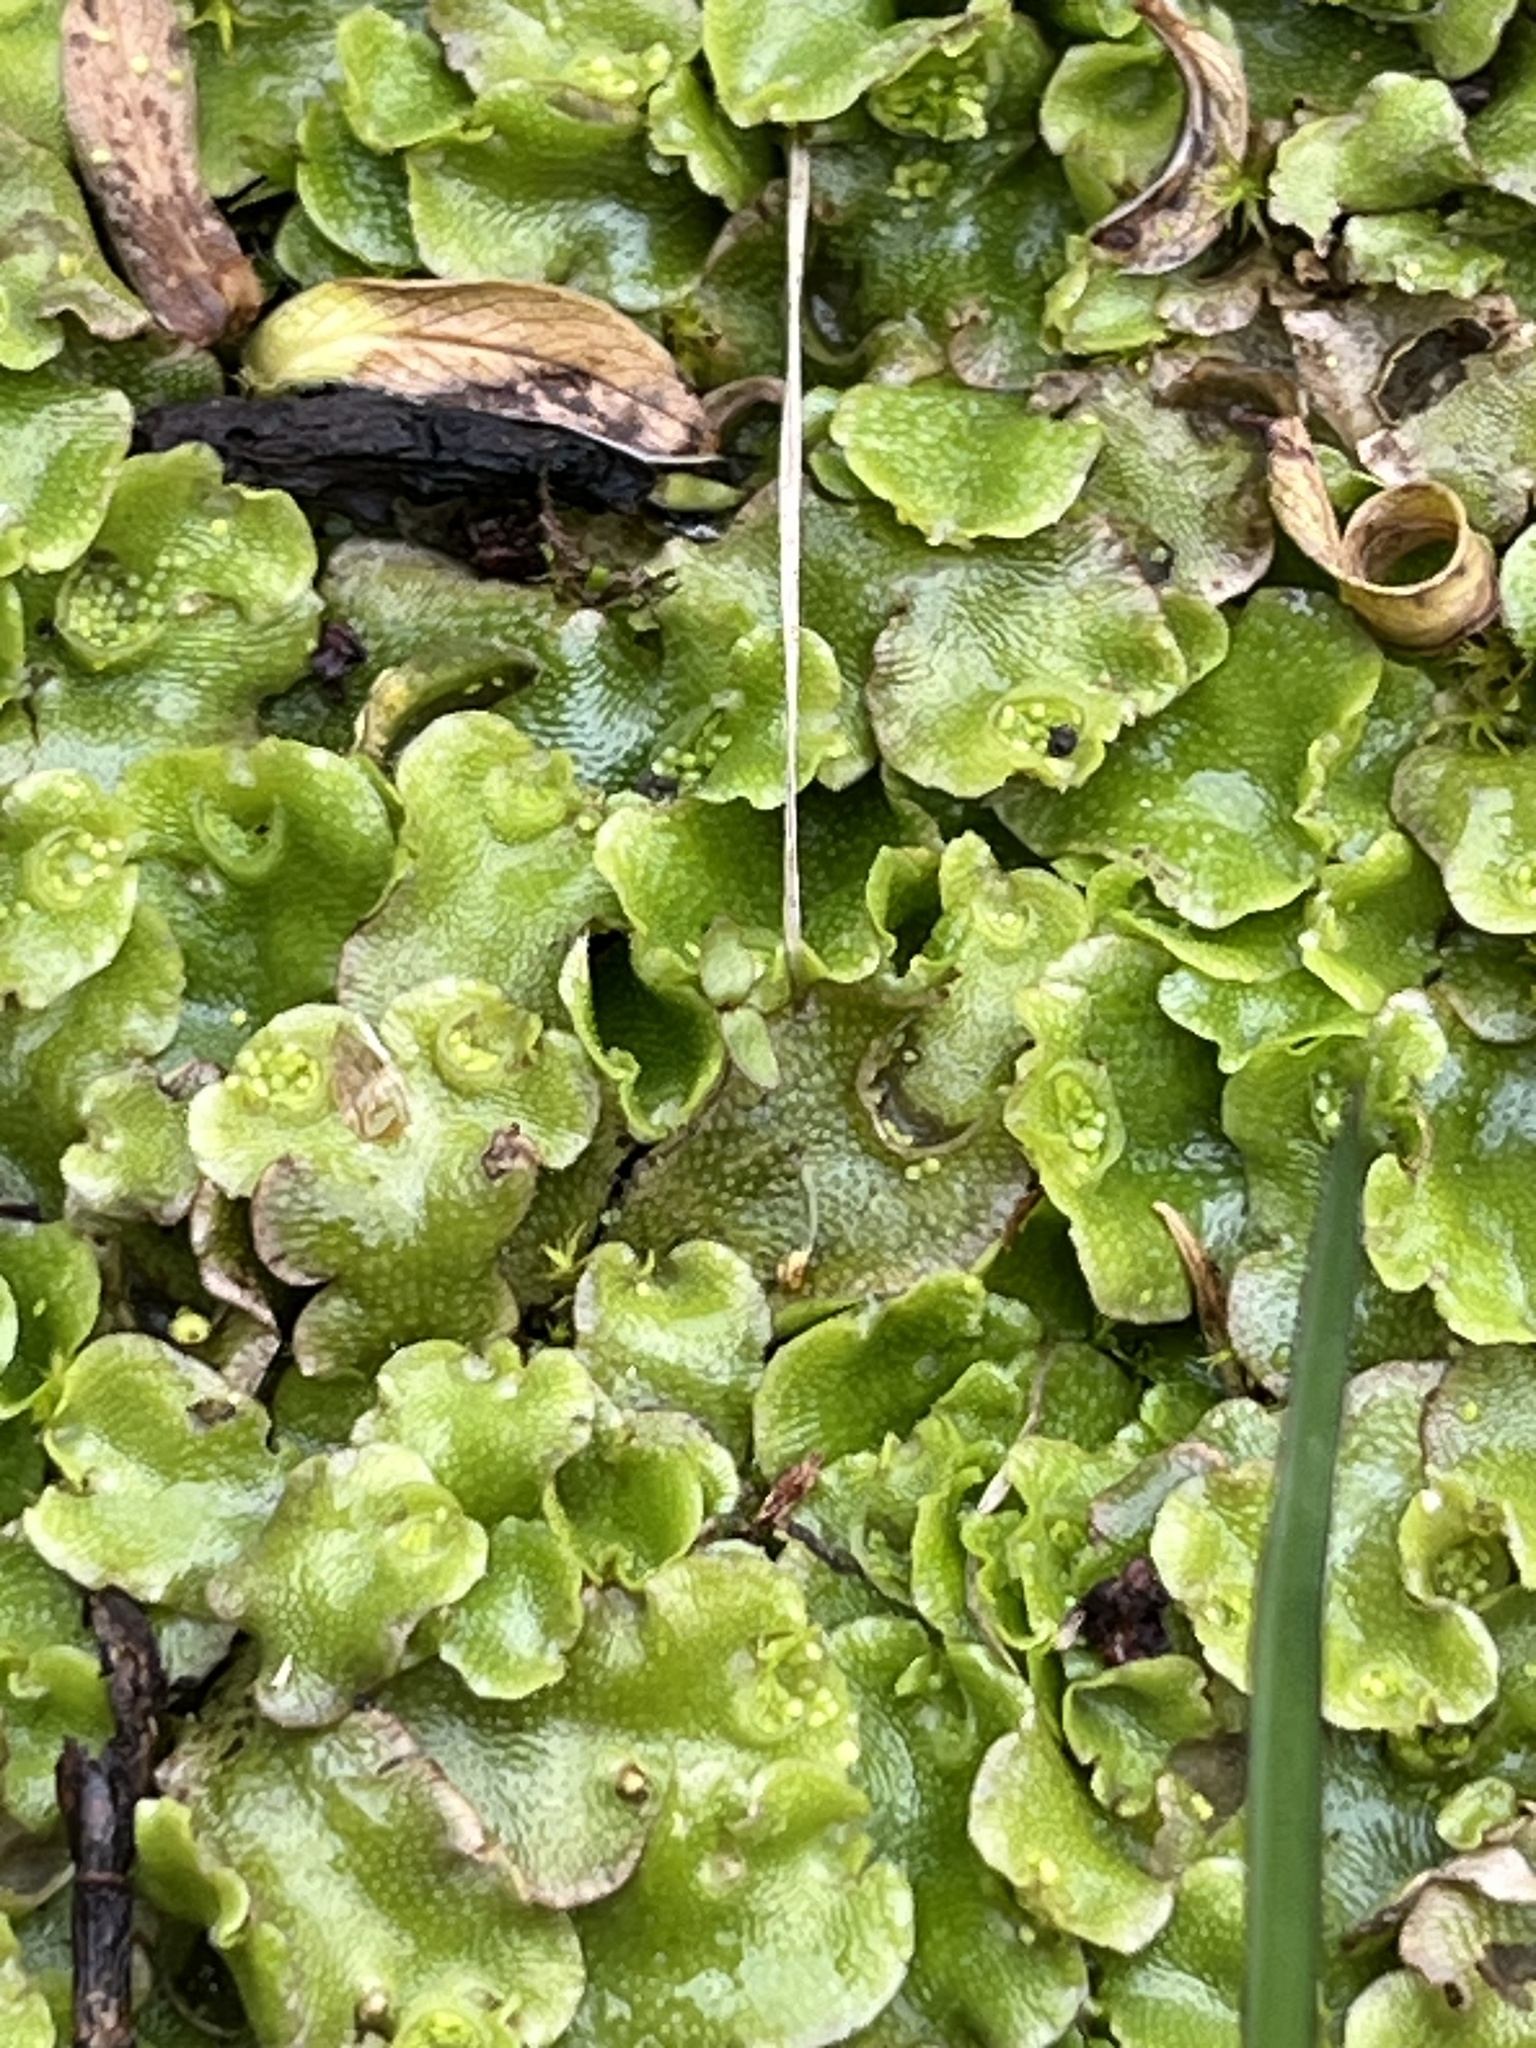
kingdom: Plantae
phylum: Marchantiophyta
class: Marchantiopsida
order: Lunulariales
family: Lunulariaceae
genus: Lunularia
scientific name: Lunularia cruciata
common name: Crescent-cup liverwort
